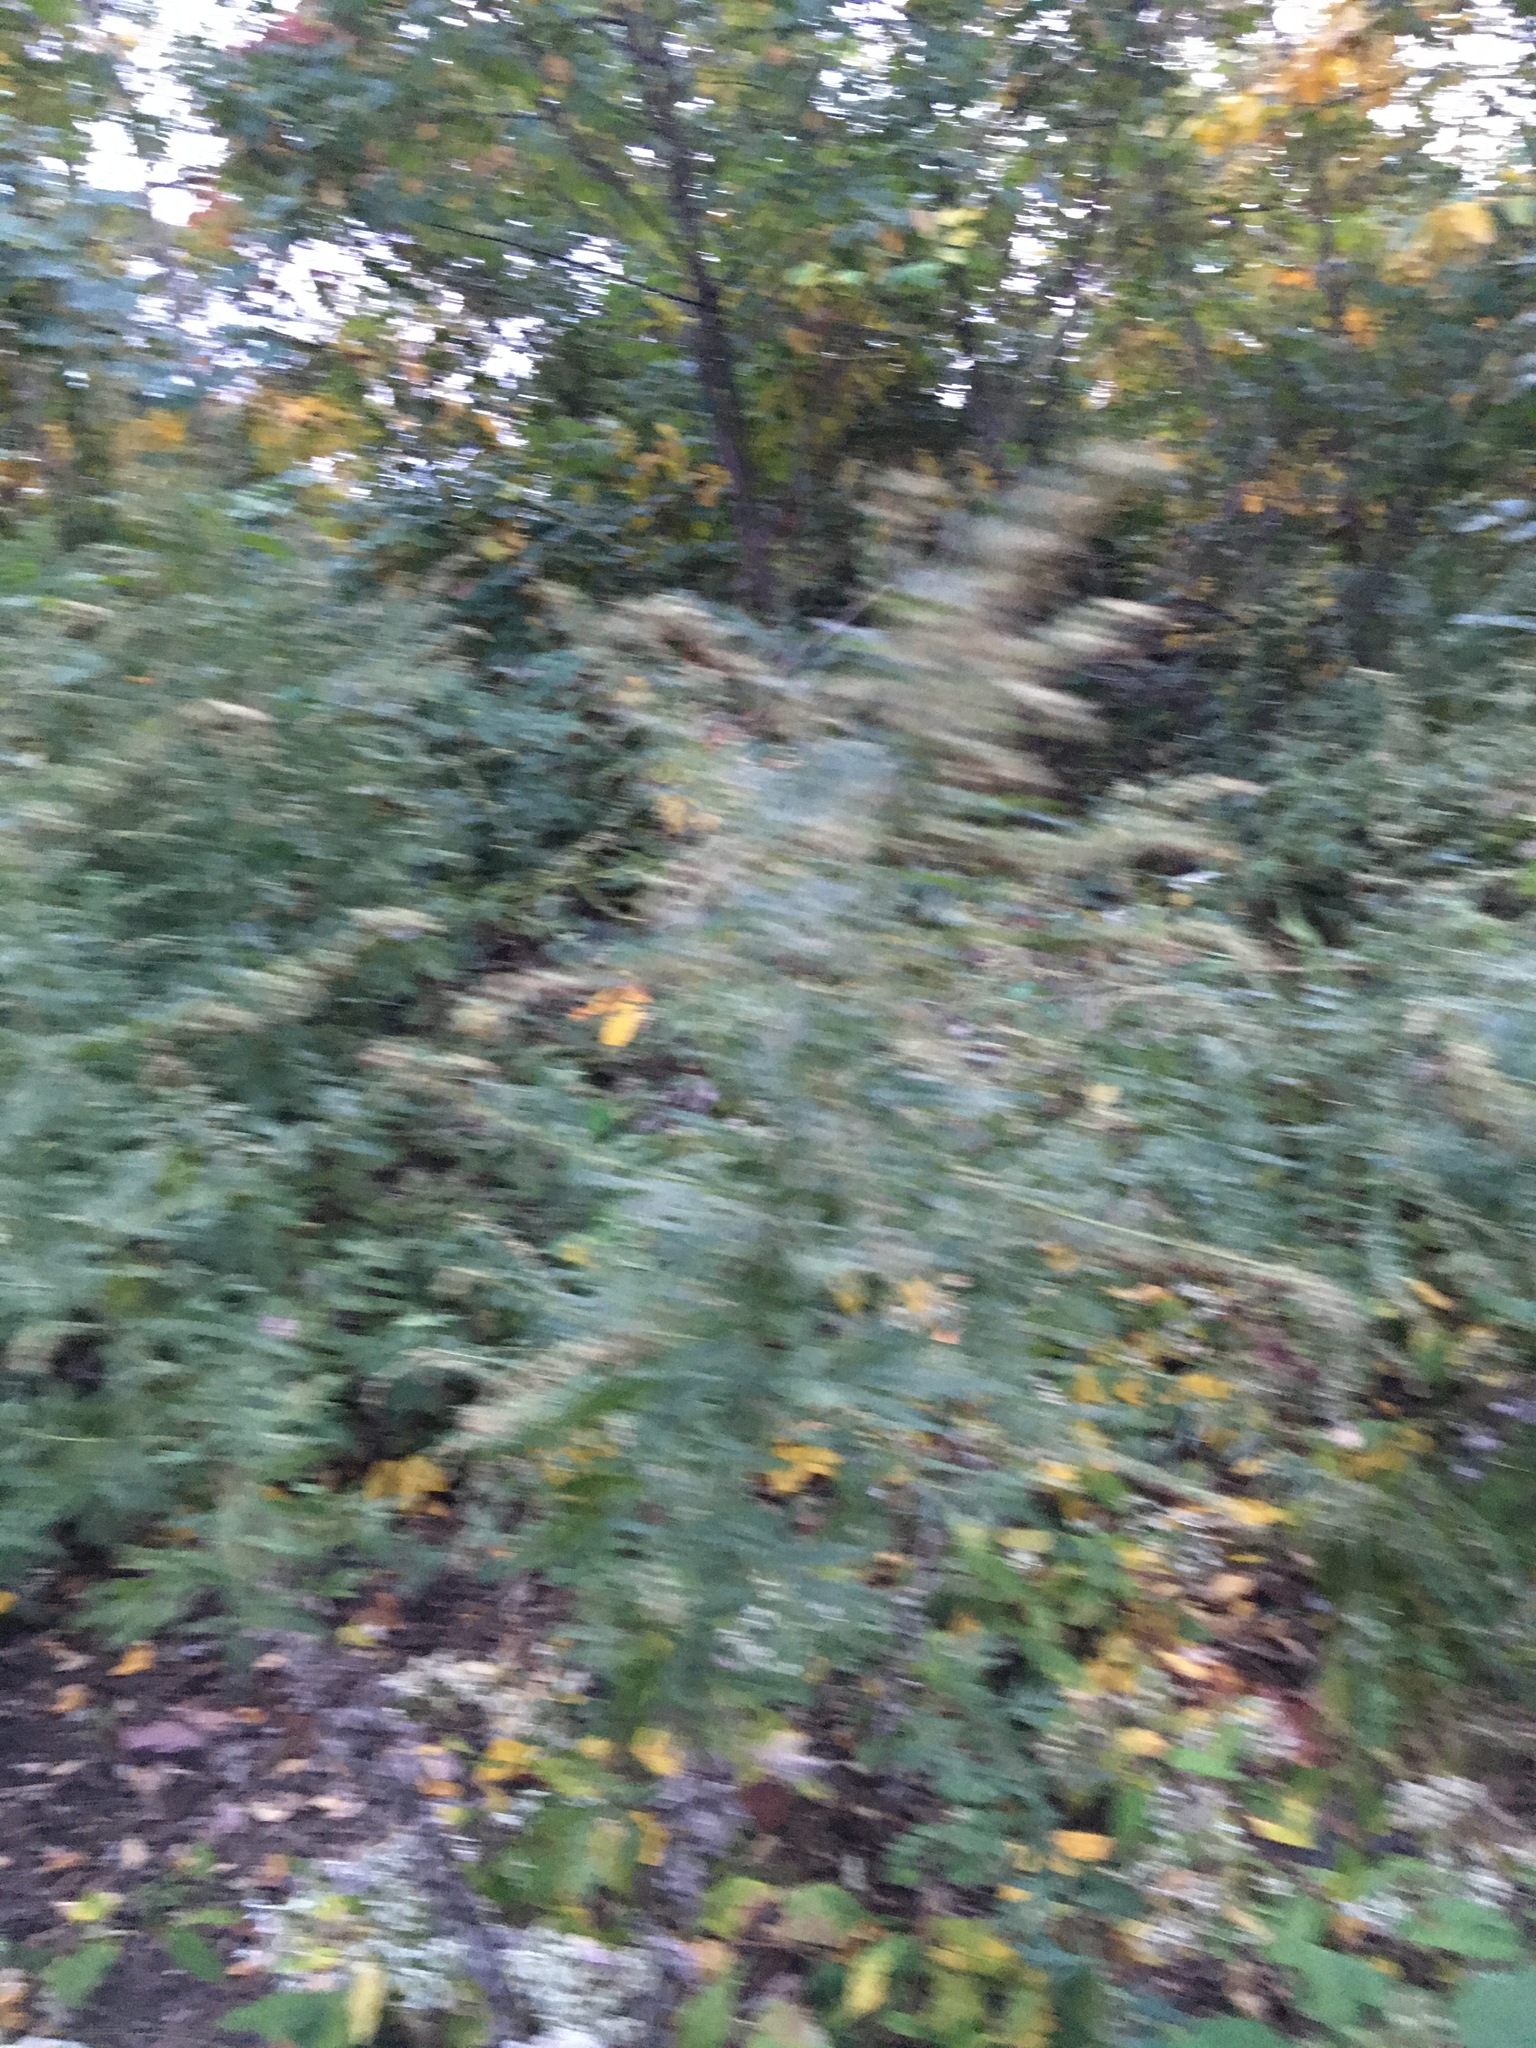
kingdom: Plantae
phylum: Tracheophyta
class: Magnoliopsida
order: Asterales
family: Asteraceae
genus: Artemisia
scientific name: Artemisia vulgaris
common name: Mugwort
